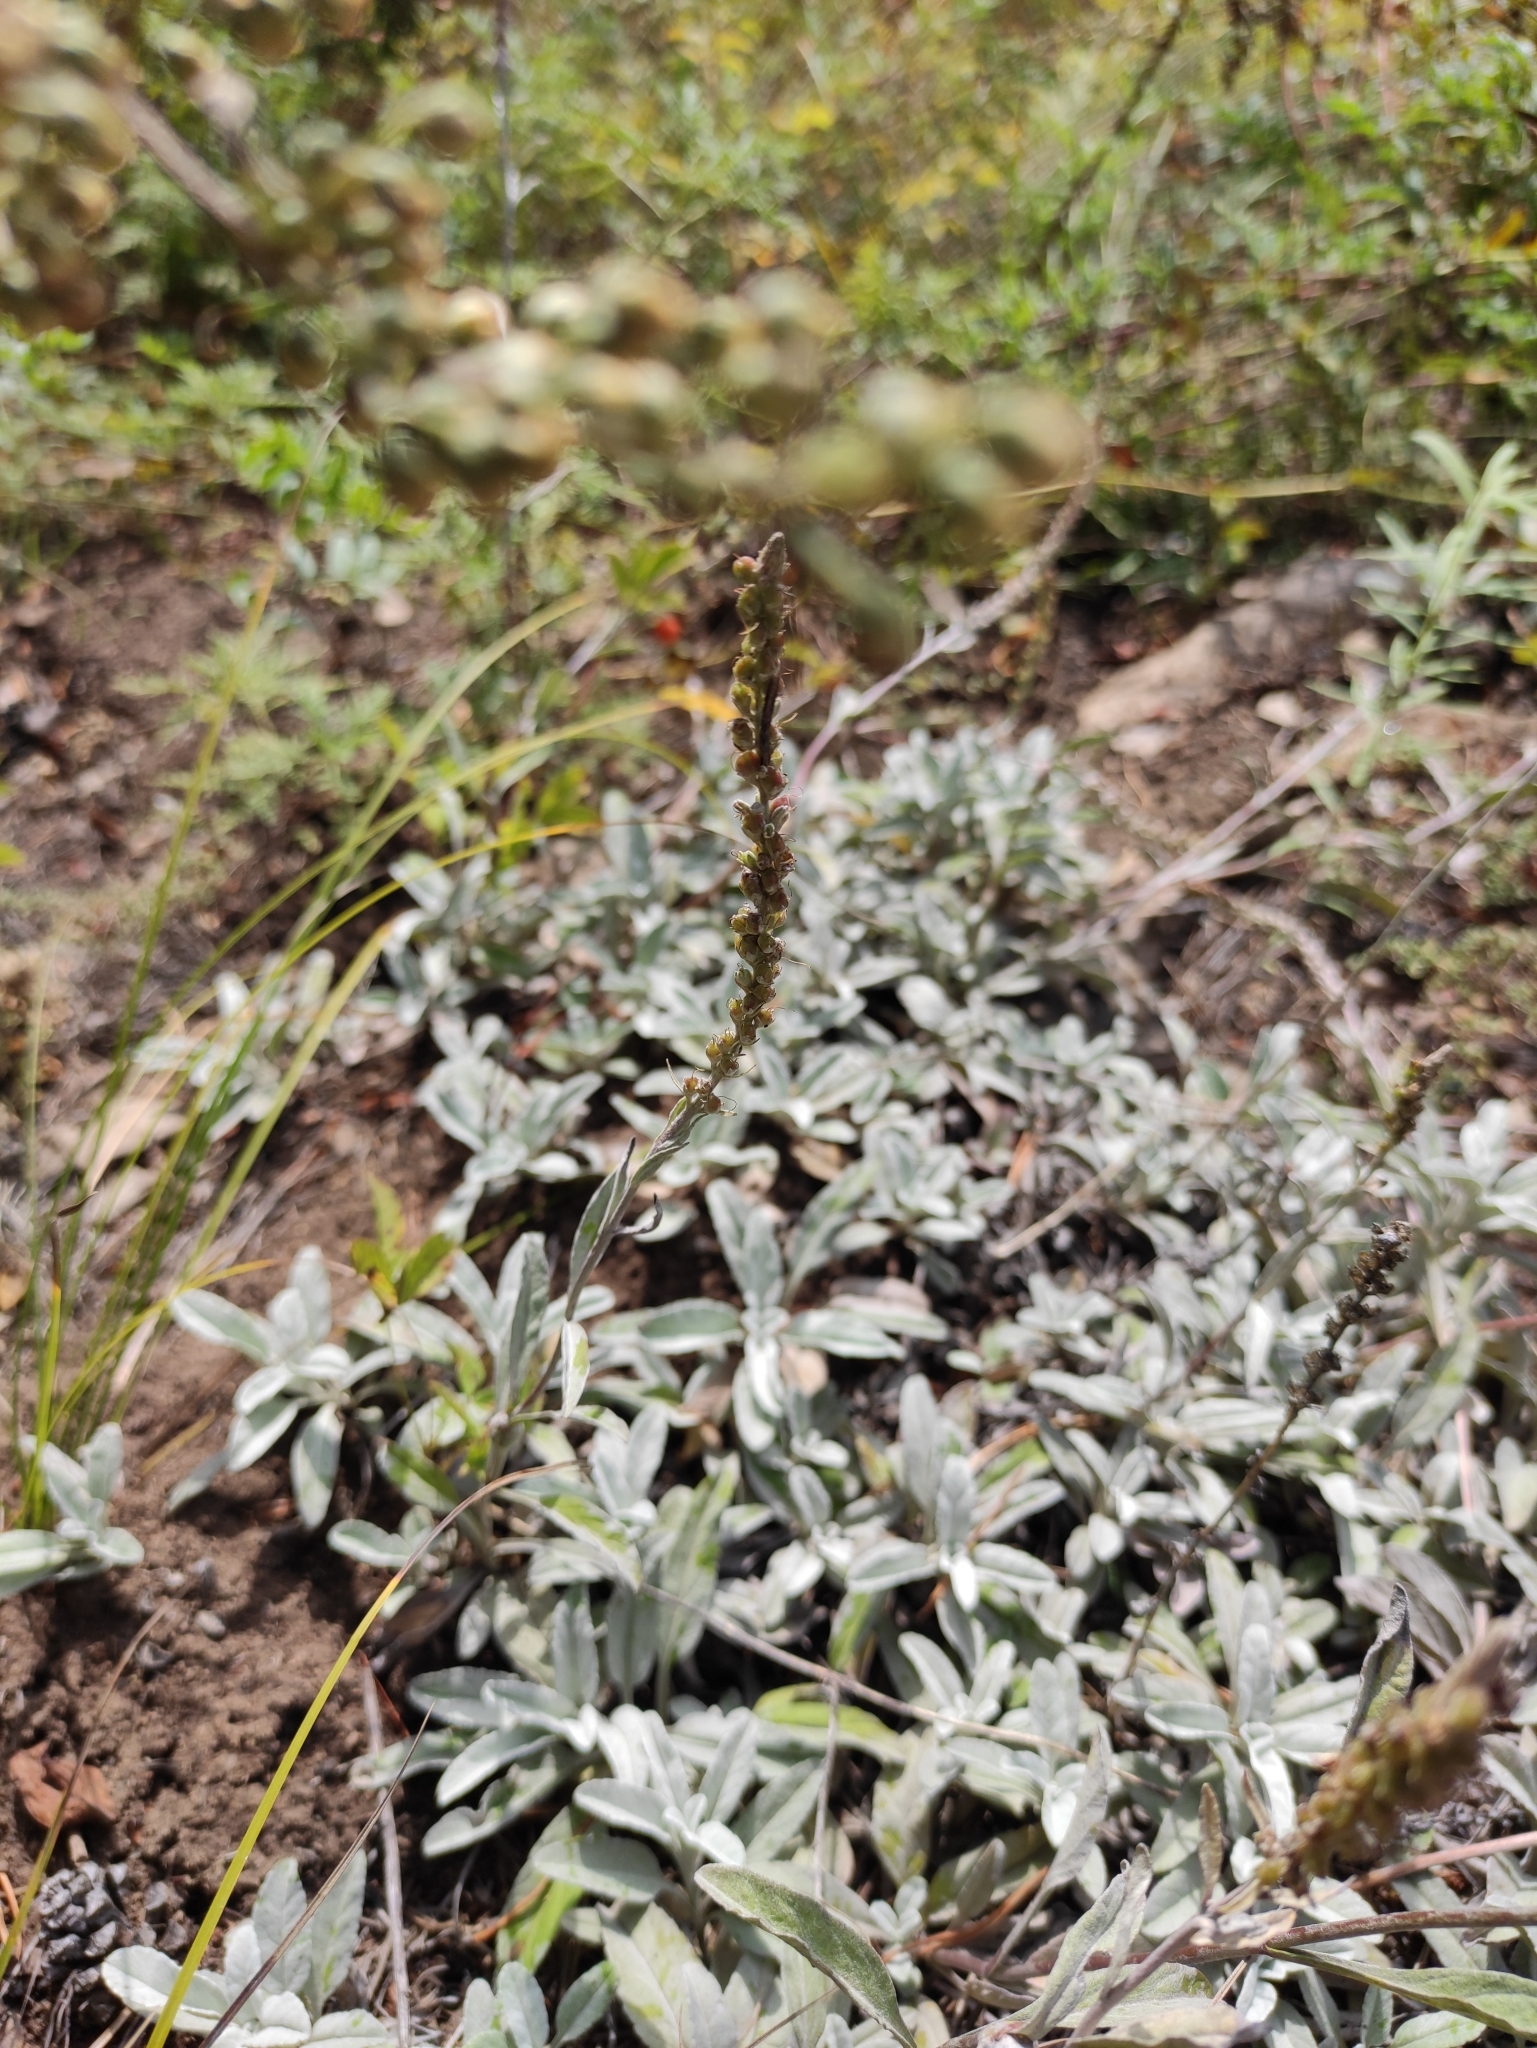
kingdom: Plantae
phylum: Tracheophyta
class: Magnoliopsida
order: Lamiales
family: Plantaginaceae
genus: Veronica
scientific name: Veronica incana
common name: Silver speedwell
